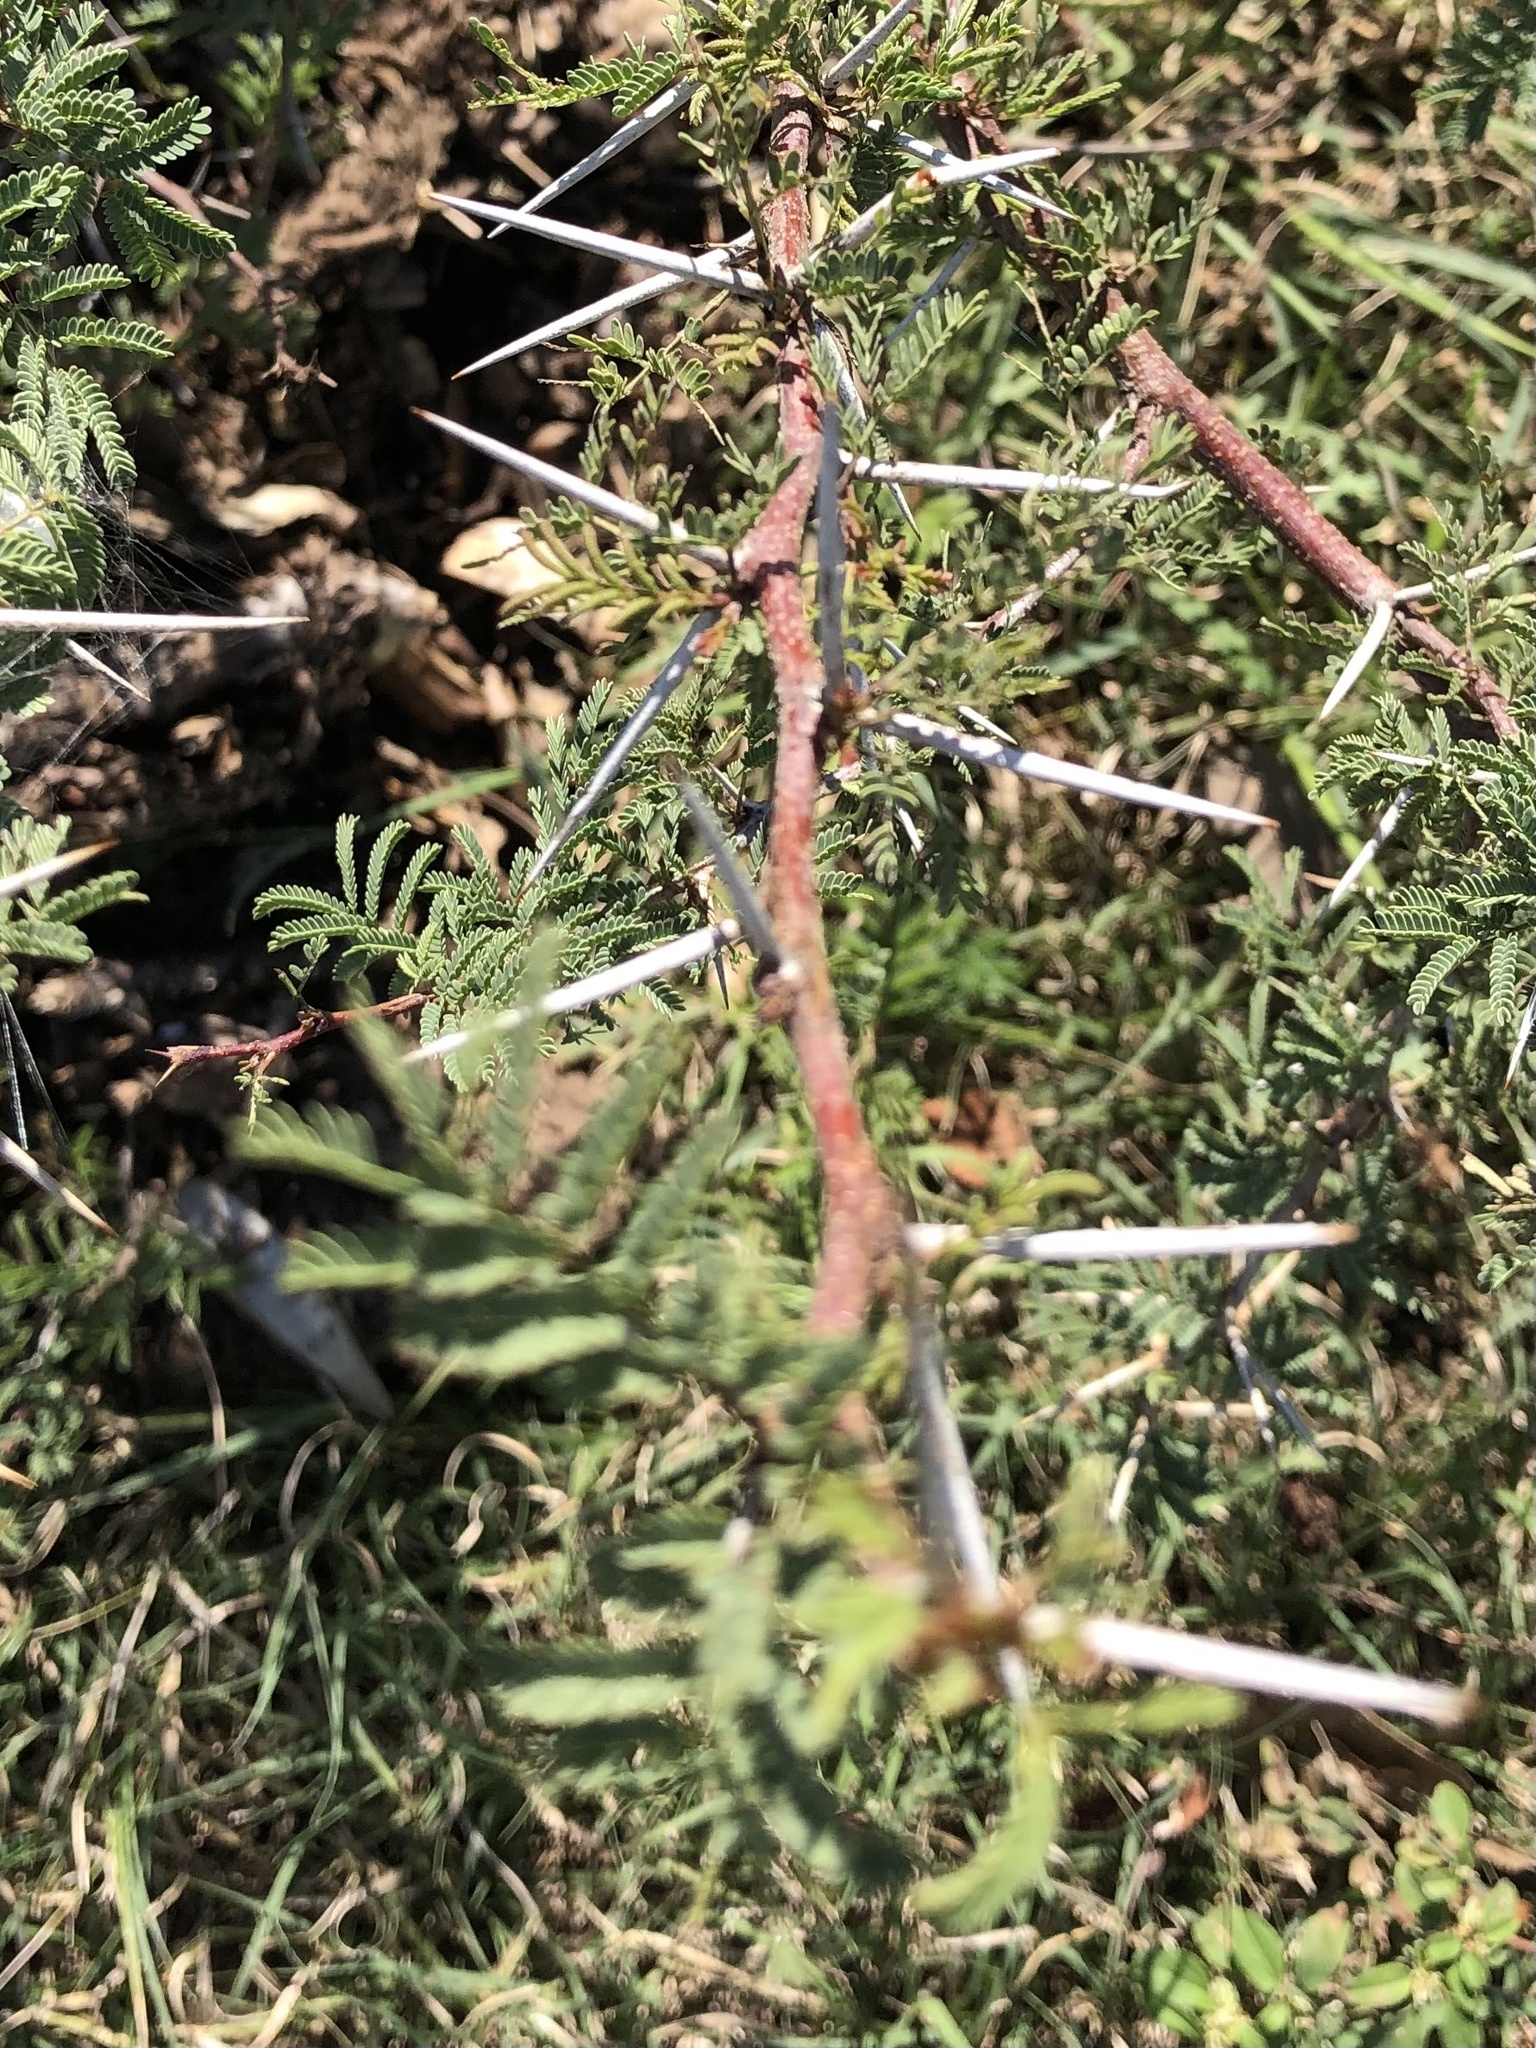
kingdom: Plantae
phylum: Tracheophyta
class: Magnoliopsida
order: Fabales
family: Fabaceae
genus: Vachellia
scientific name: Vachellia farnesiana
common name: Sweet acacia
